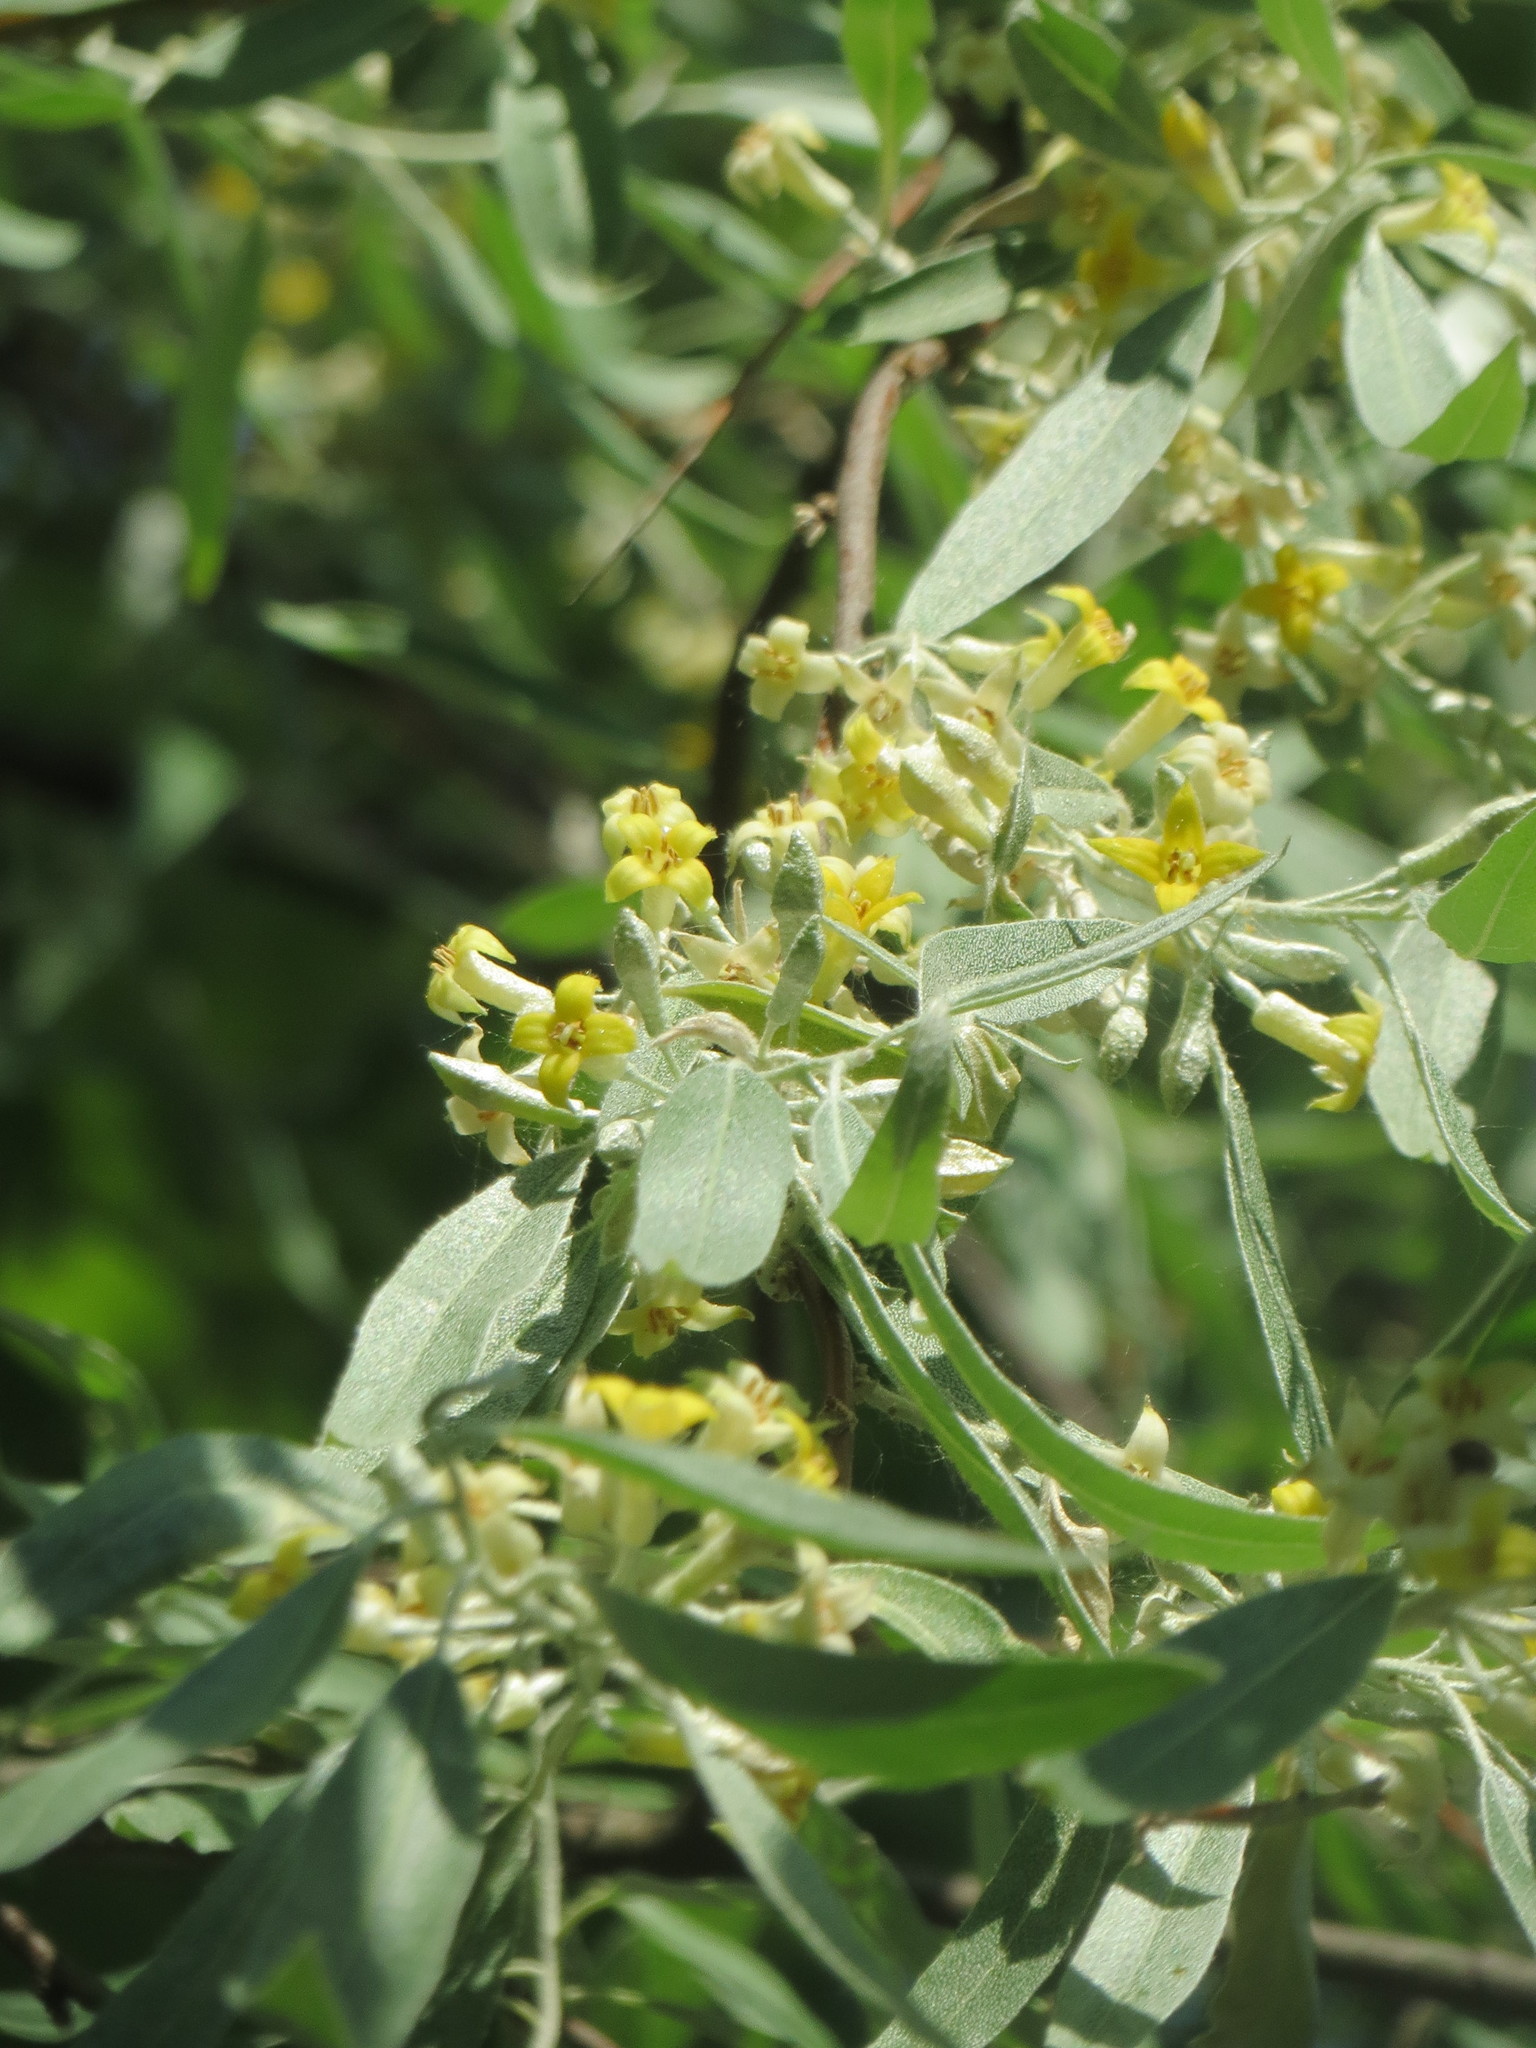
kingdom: Plantae
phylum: Tracheophyta
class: Magnoliopsida
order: Rosales
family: Elaeagnaceae
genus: Elaeagnus
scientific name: Elaeagnus angustifolia
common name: Russian olive
